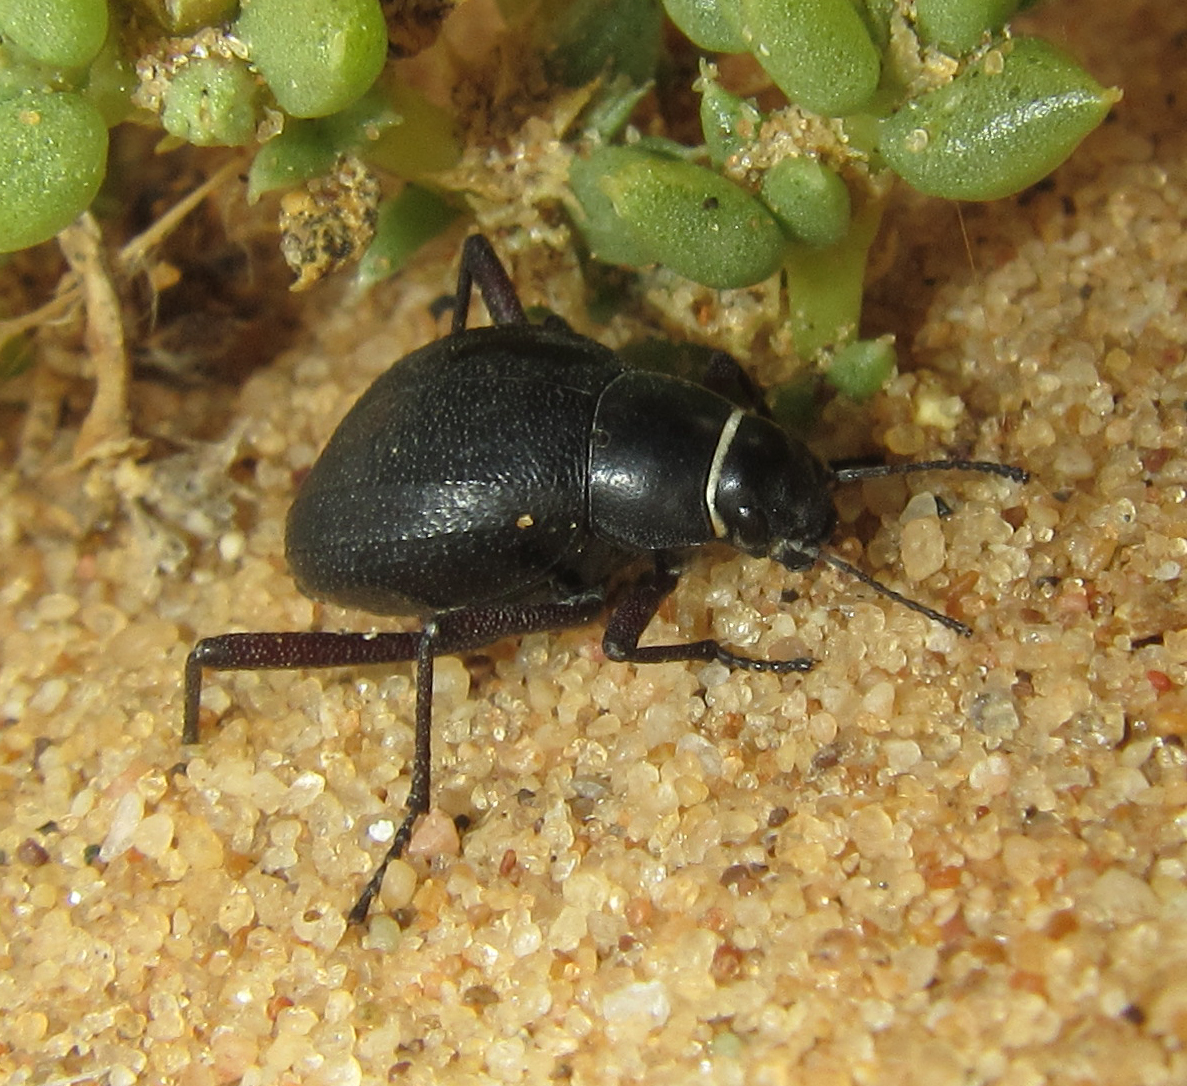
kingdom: Animalia
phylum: Arthropoda
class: Insecta
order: Coleoptera
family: Tenebrionidae
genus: Onymacris
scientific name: Onymacris unguicularis
